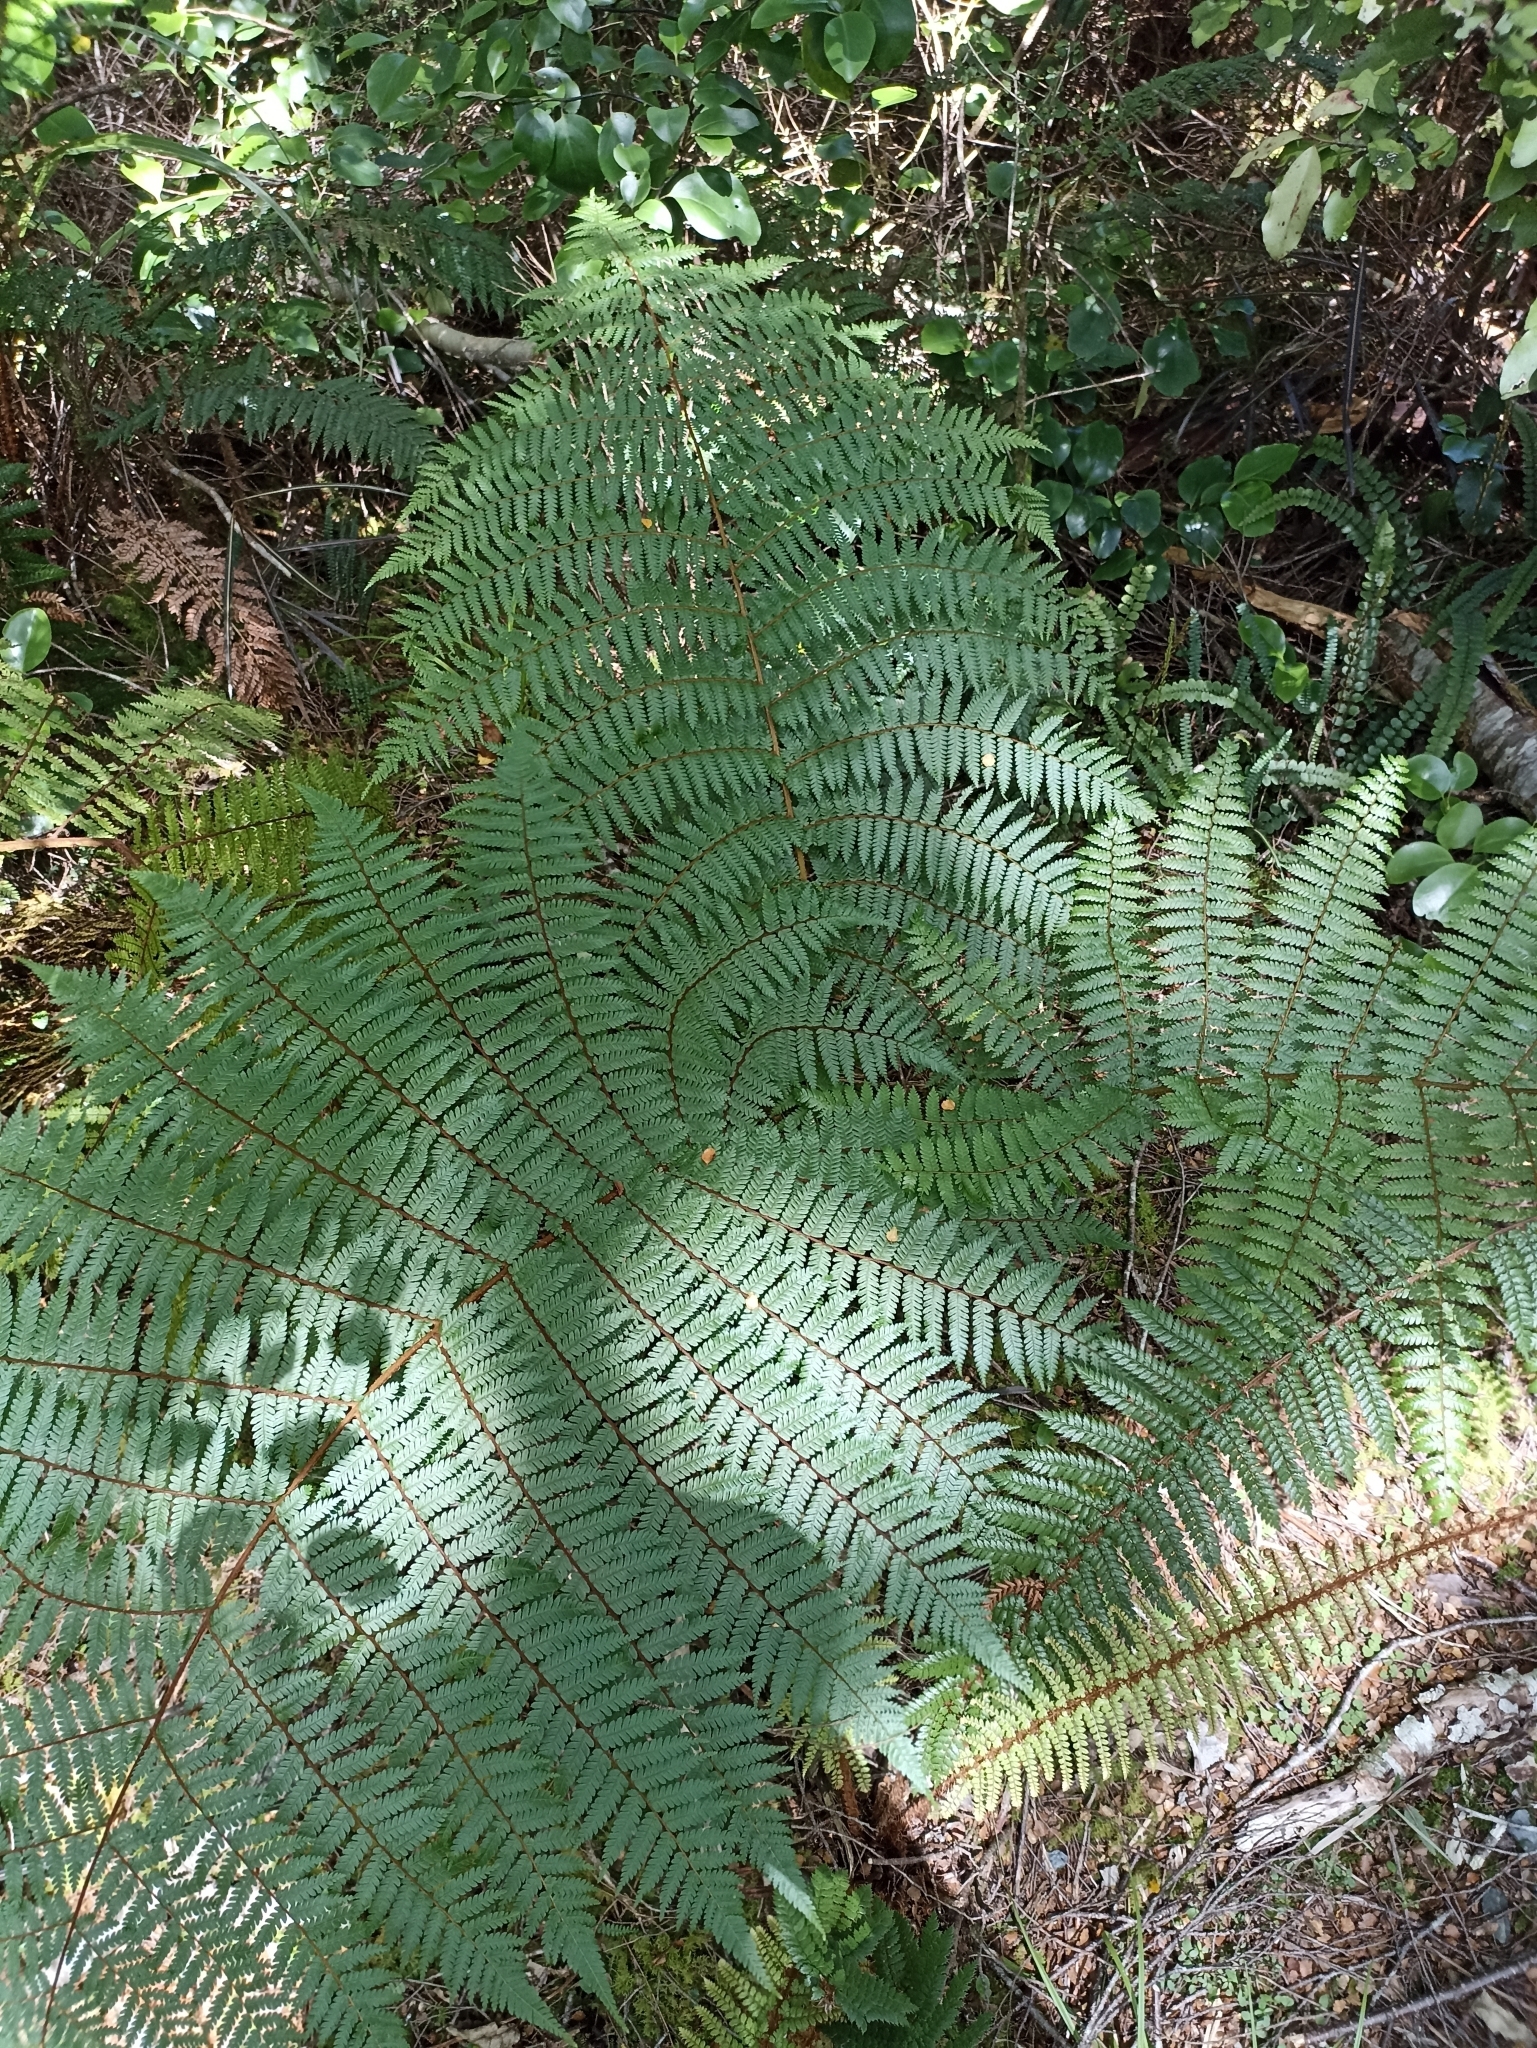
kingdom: Plantae
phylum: Tracheophyta
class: Polypodiopsida
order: Cyatheales
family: Cyatheaceae
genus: Alsophila
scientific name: Alsophila colensoi
